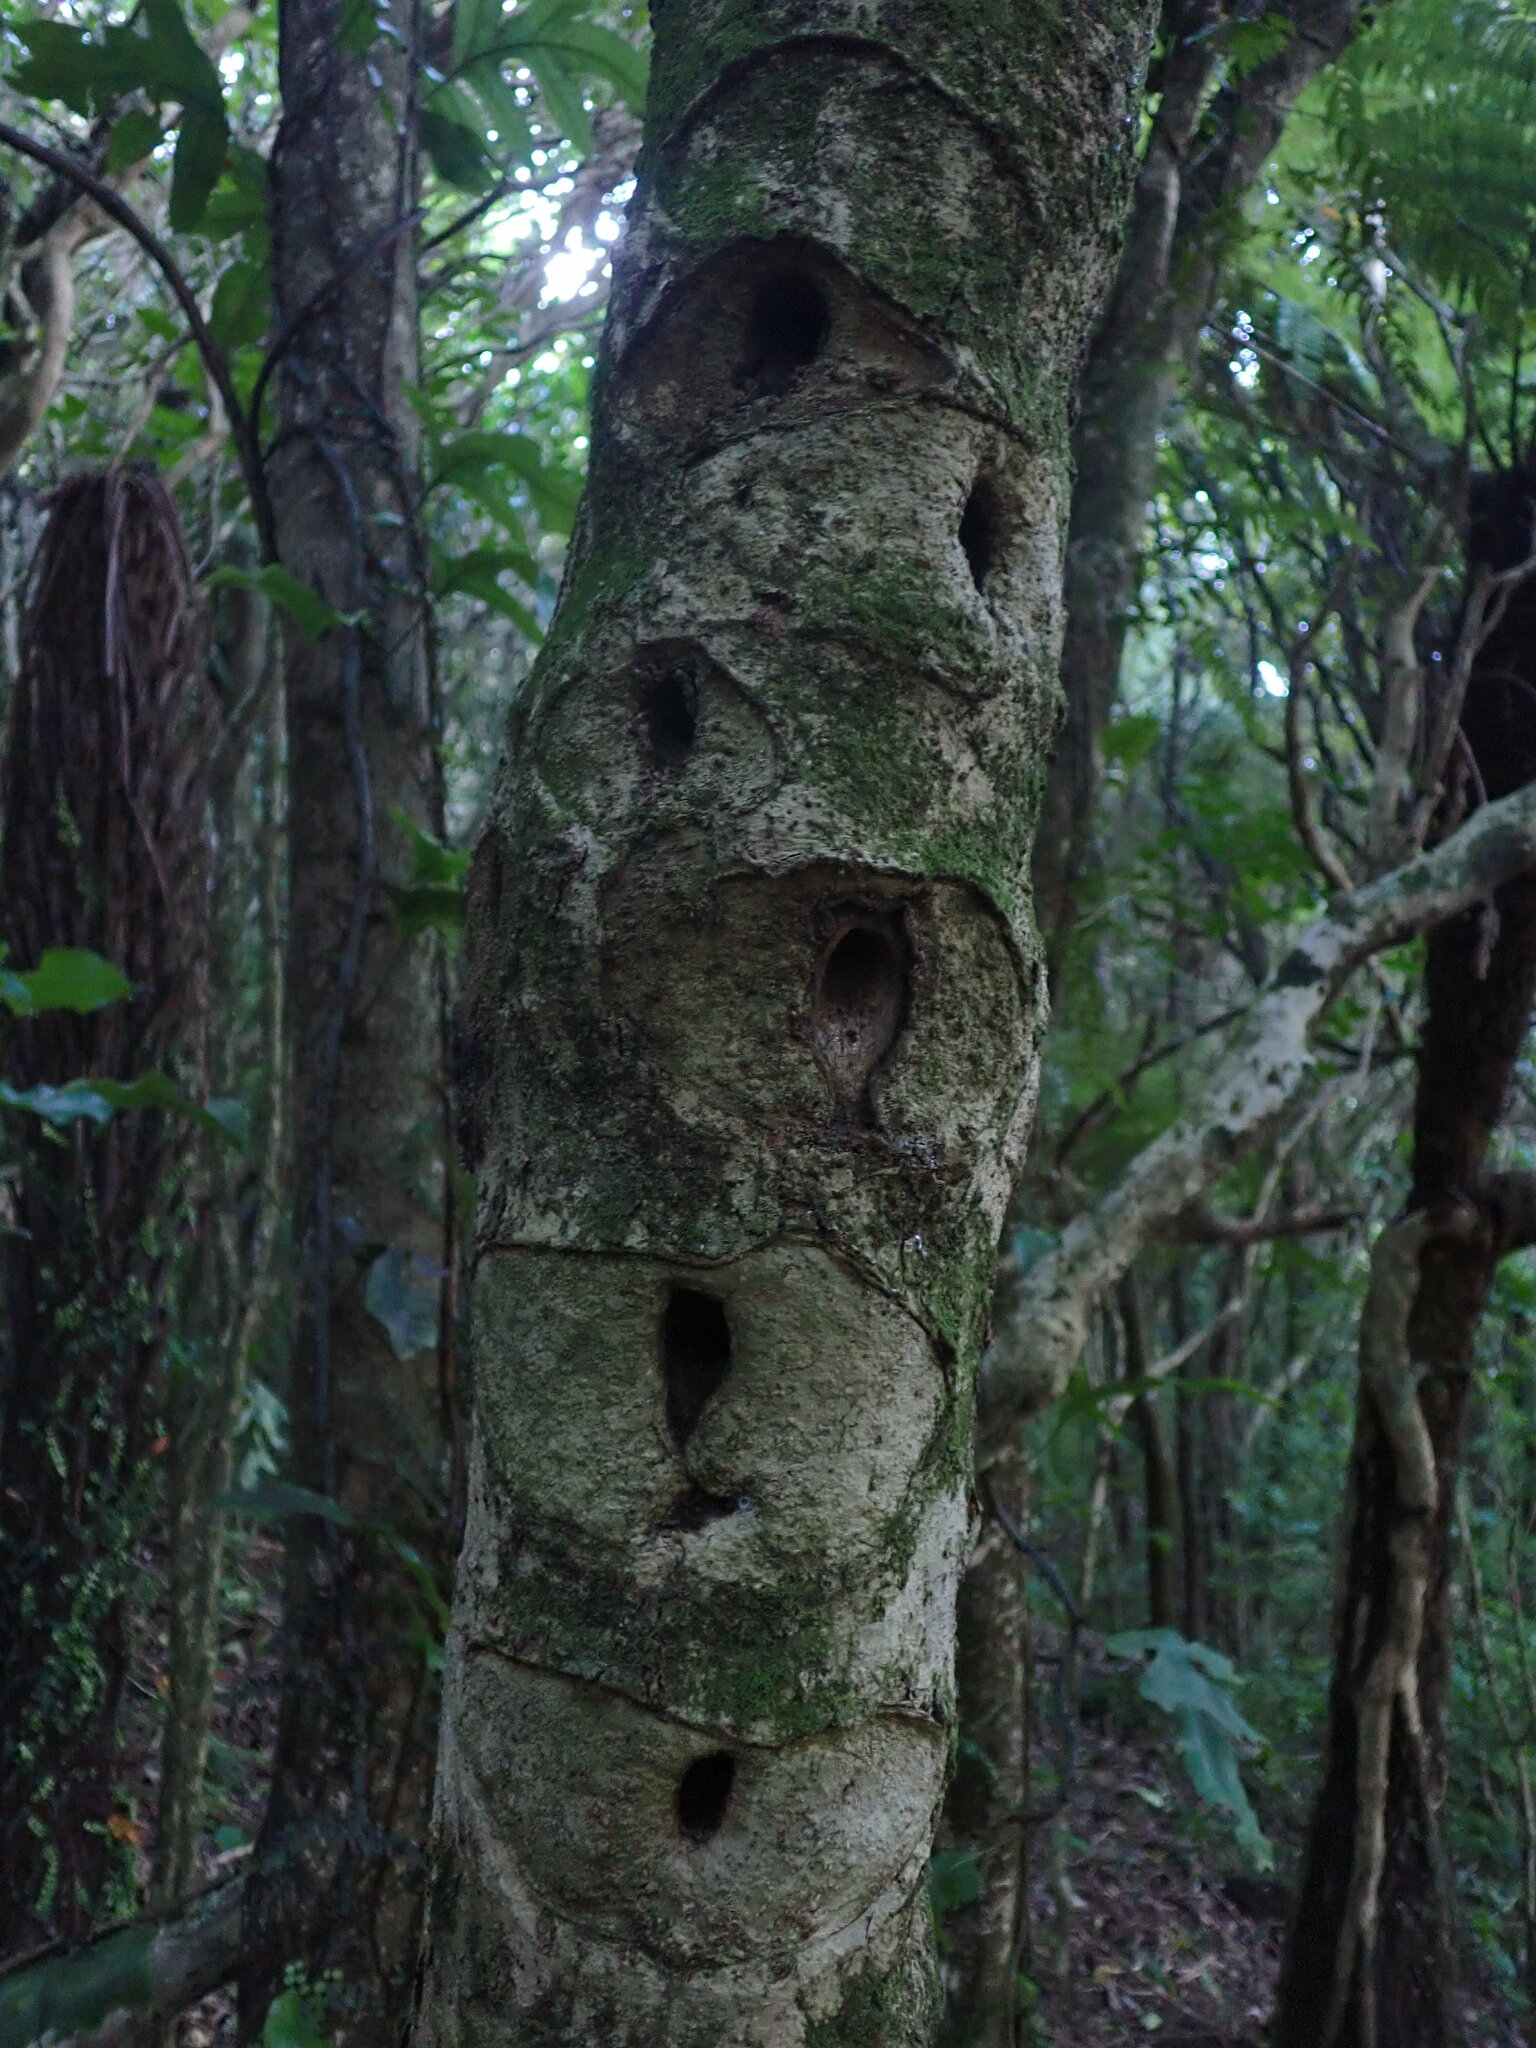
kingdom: Animalia
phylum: Arthropoda
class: Insecta
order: Lepidoptera
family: Hepialidae
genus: Aenetus
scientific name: Aenetus virescens
